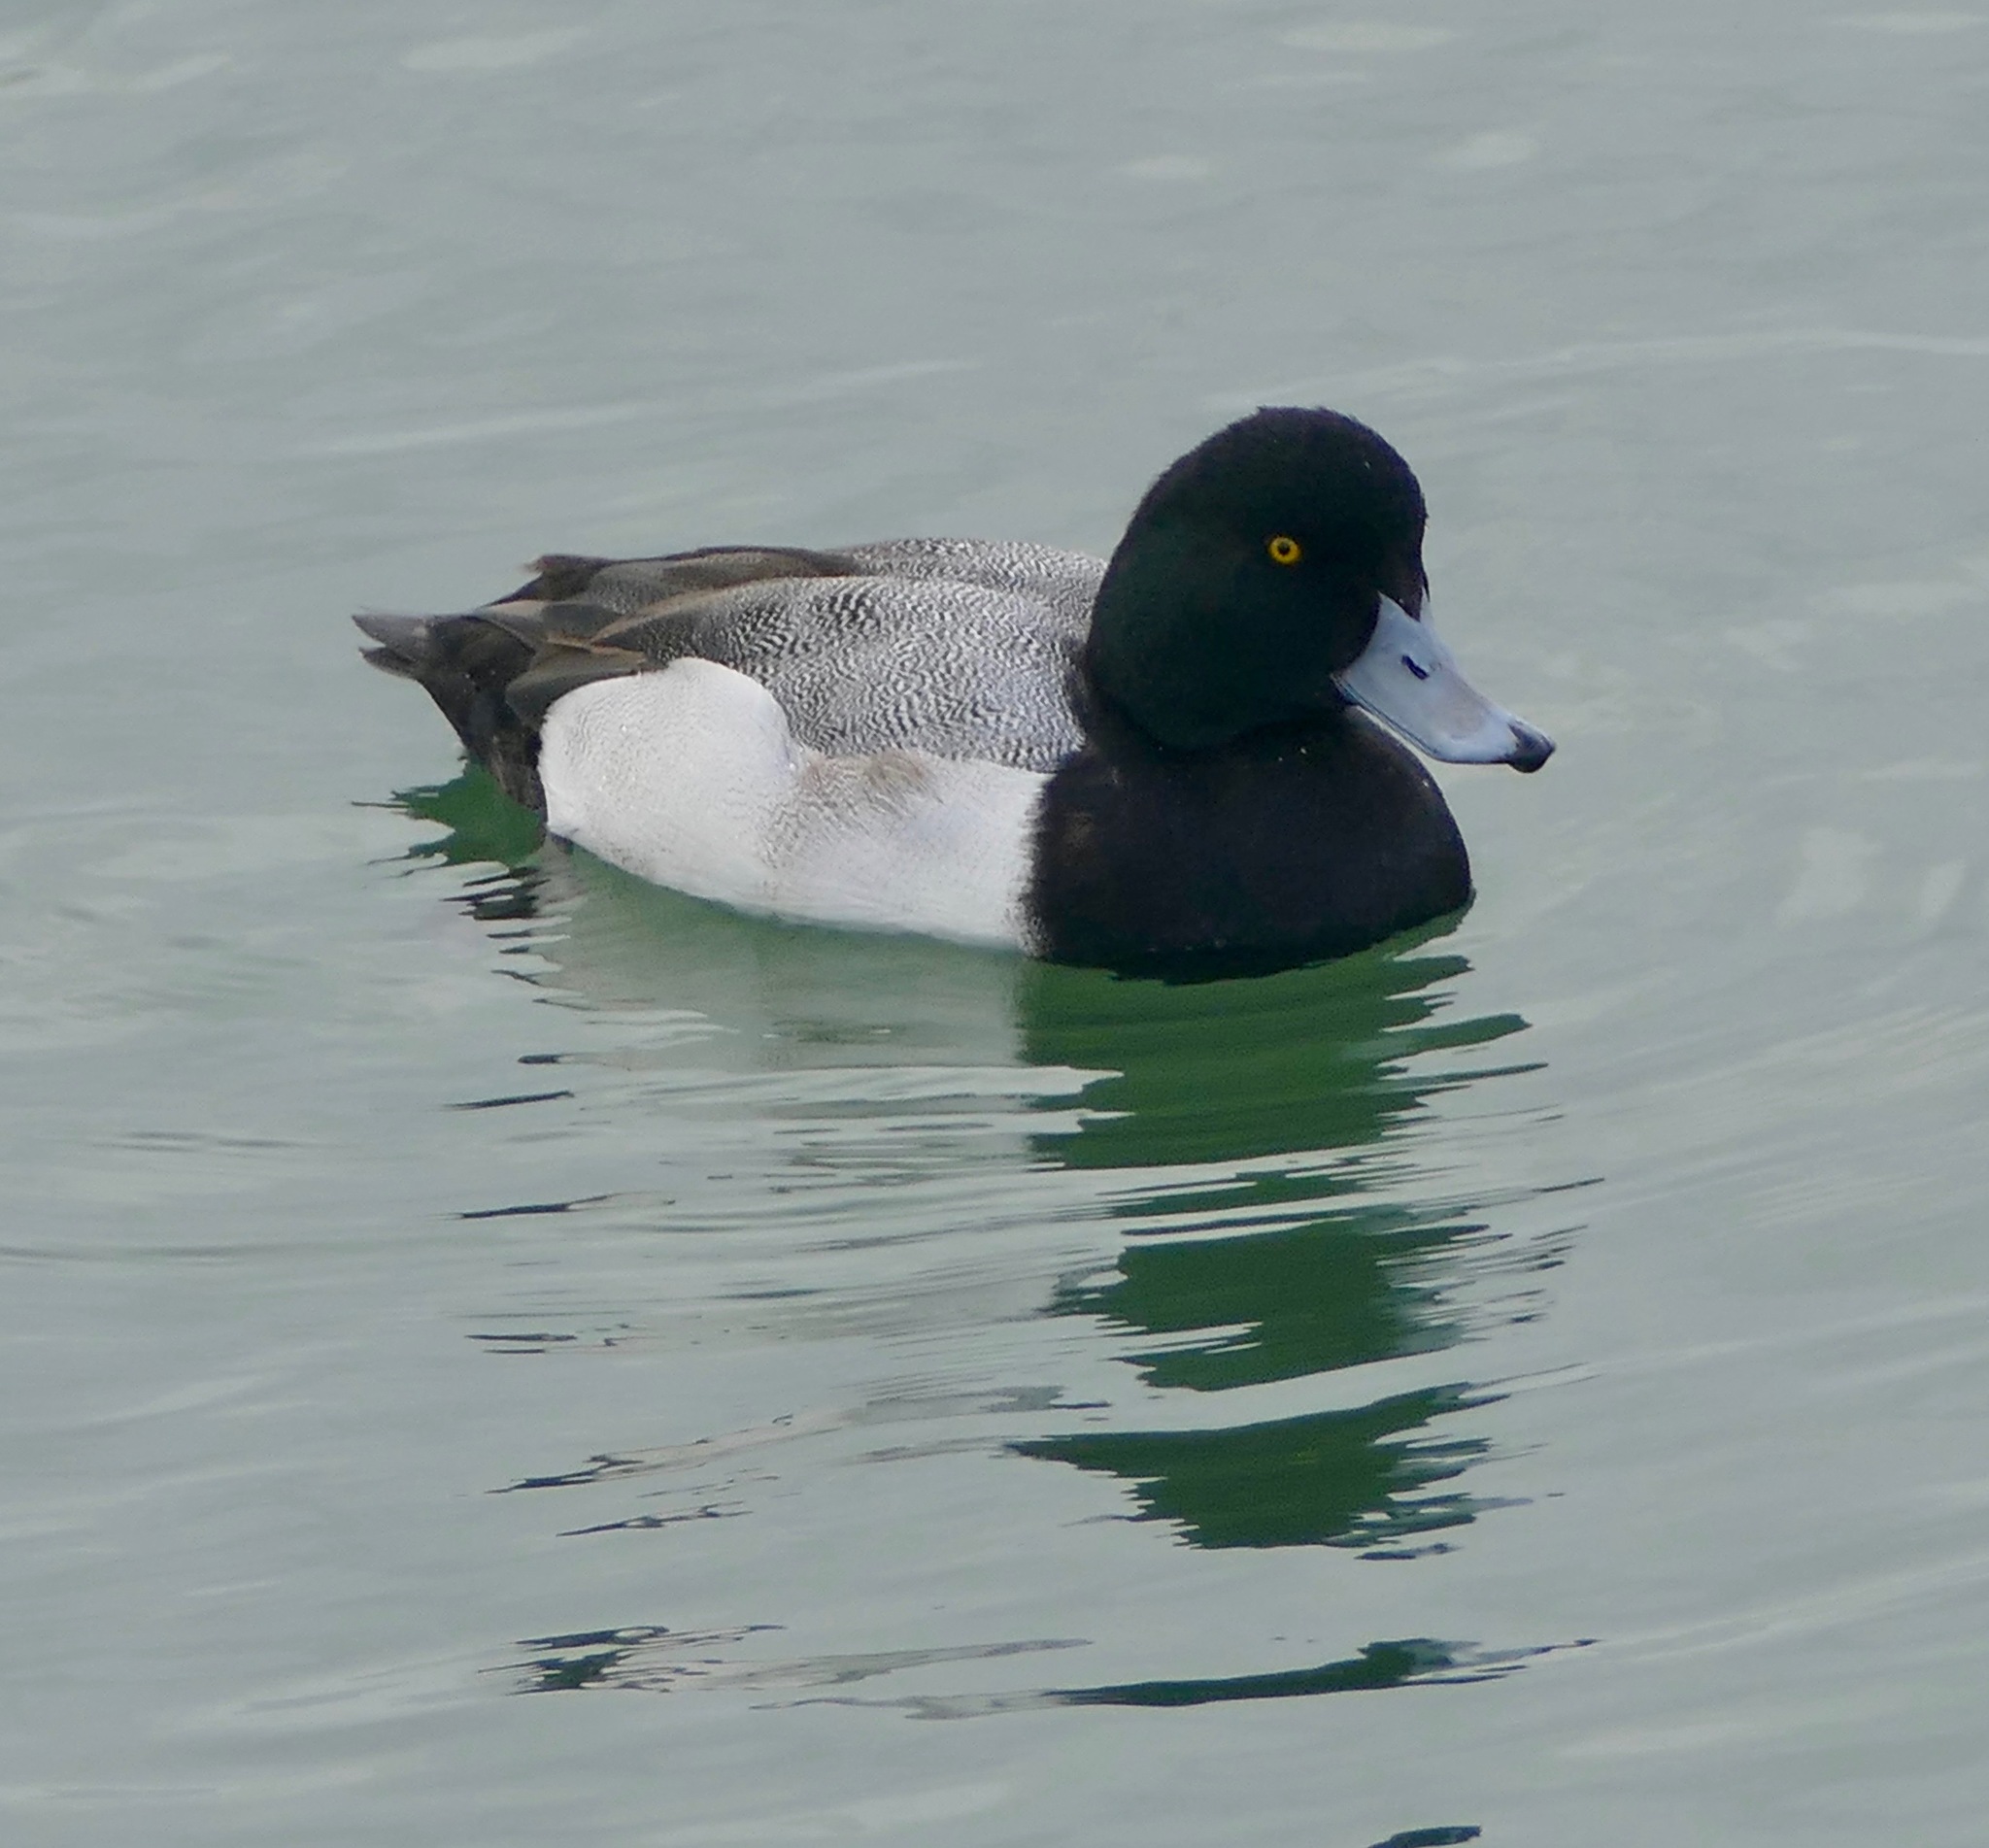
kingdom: Animalia
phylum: Chordata
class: Aves
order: Anseriformes
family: Anatidae
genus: Aythya
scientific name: Aythya marila
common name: Greater scaup
